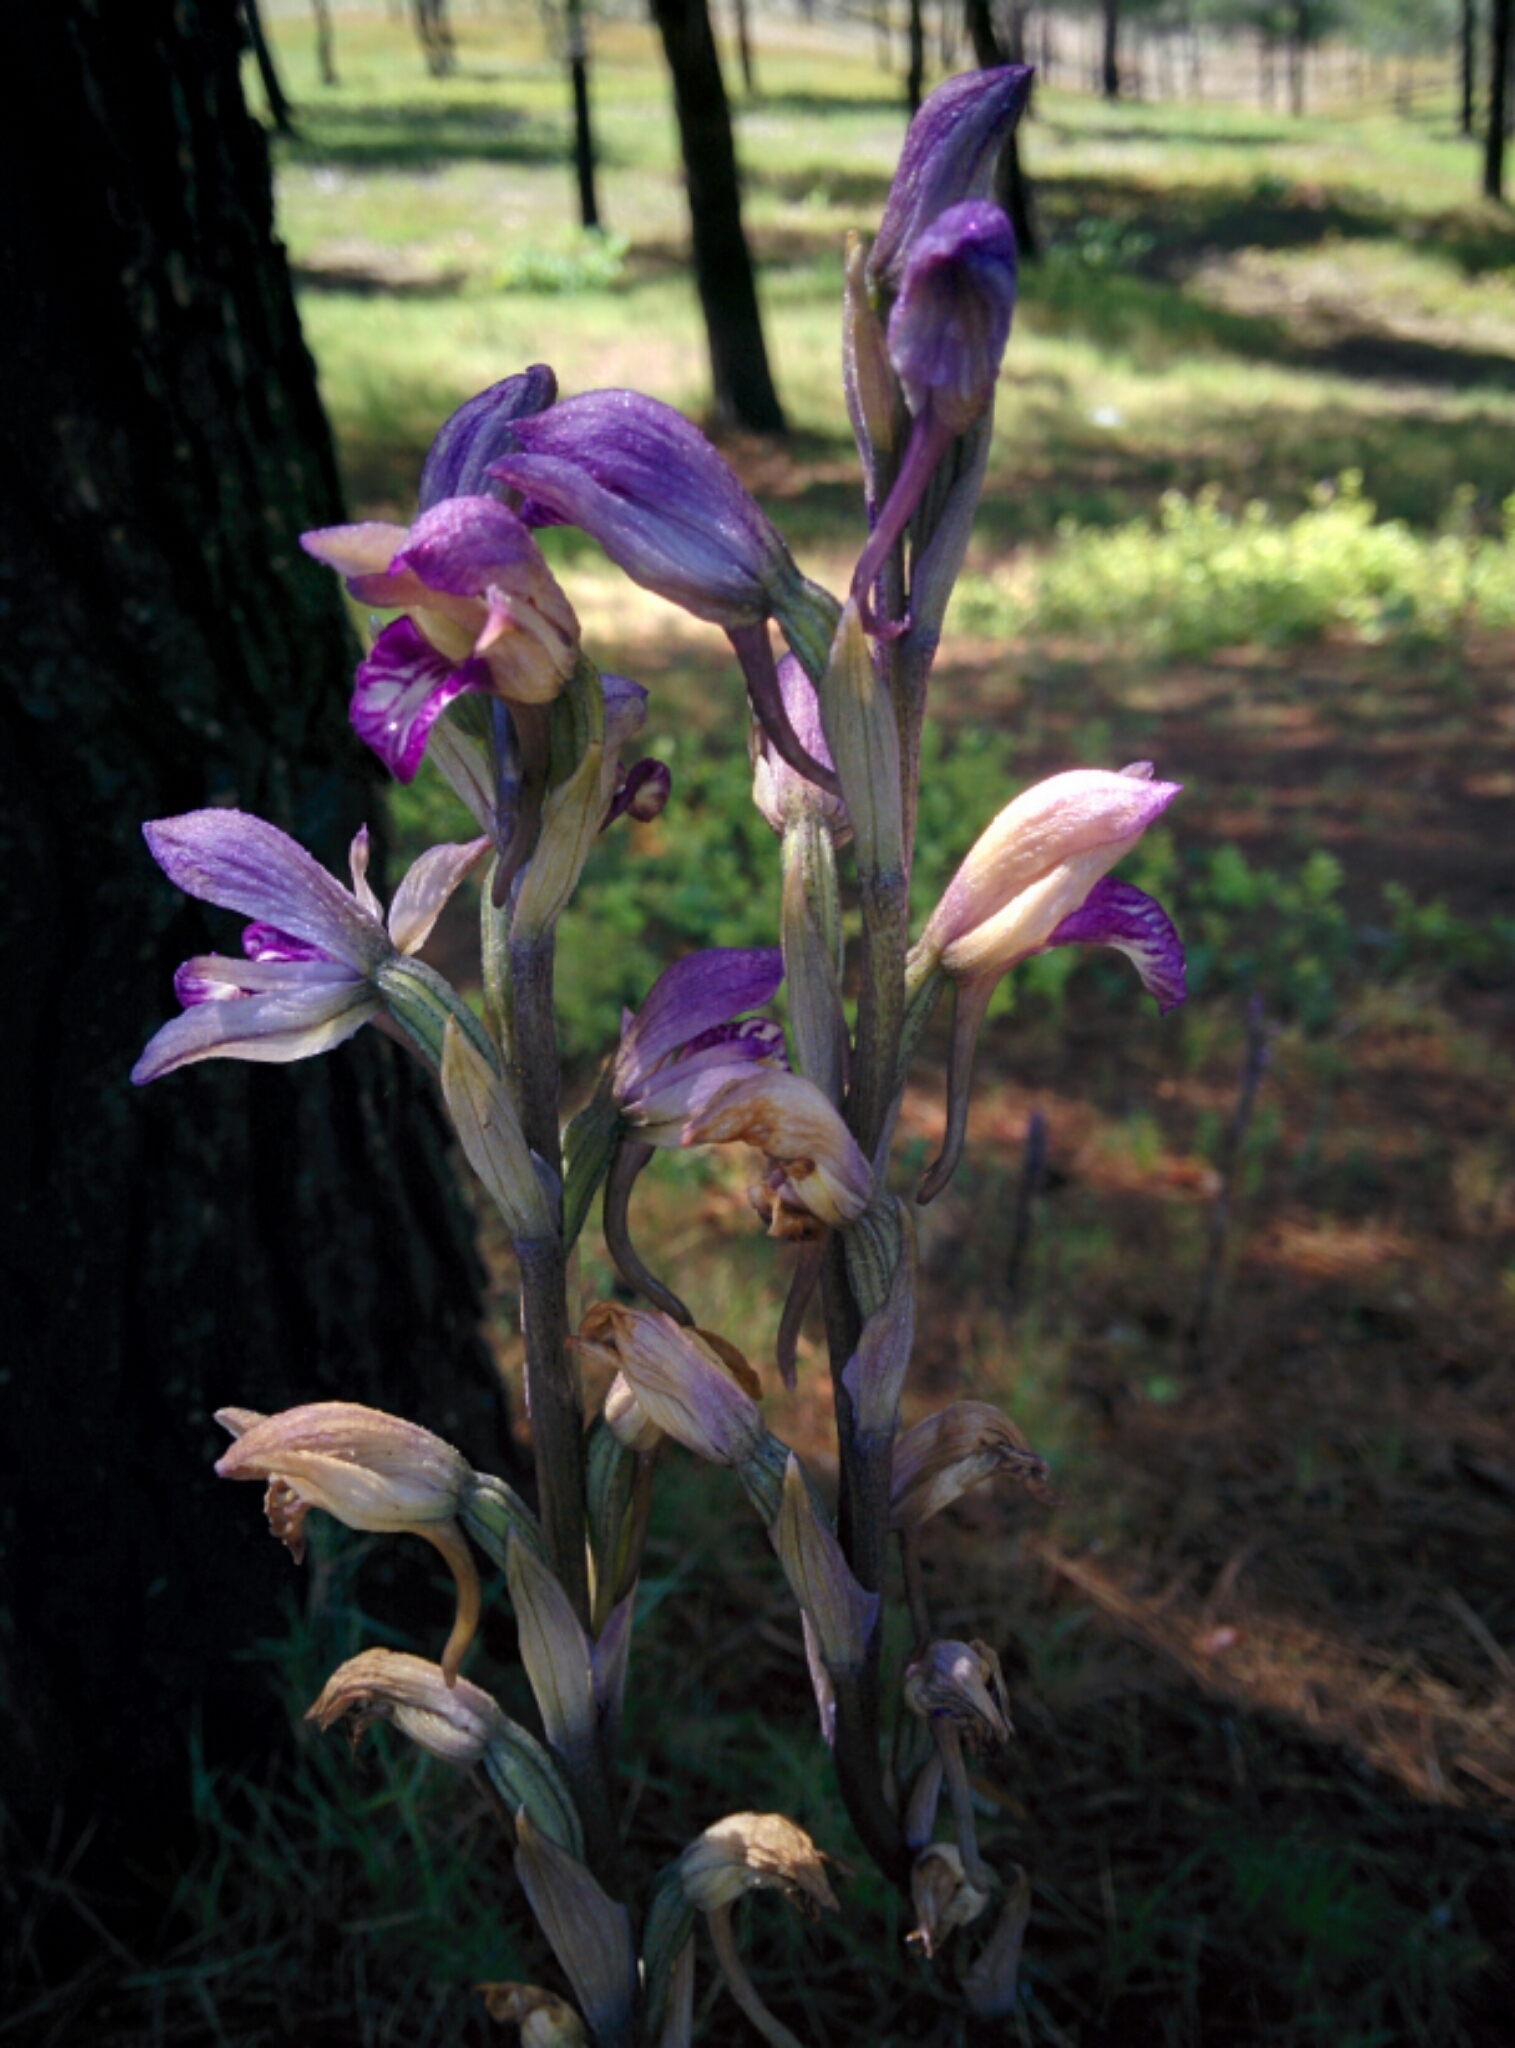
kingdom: Plantae
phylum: Tracheophyta
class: Liliopsida
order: Asparagales
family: Orchidaceae
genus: Limodorum
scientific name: Limodorum abortivum
